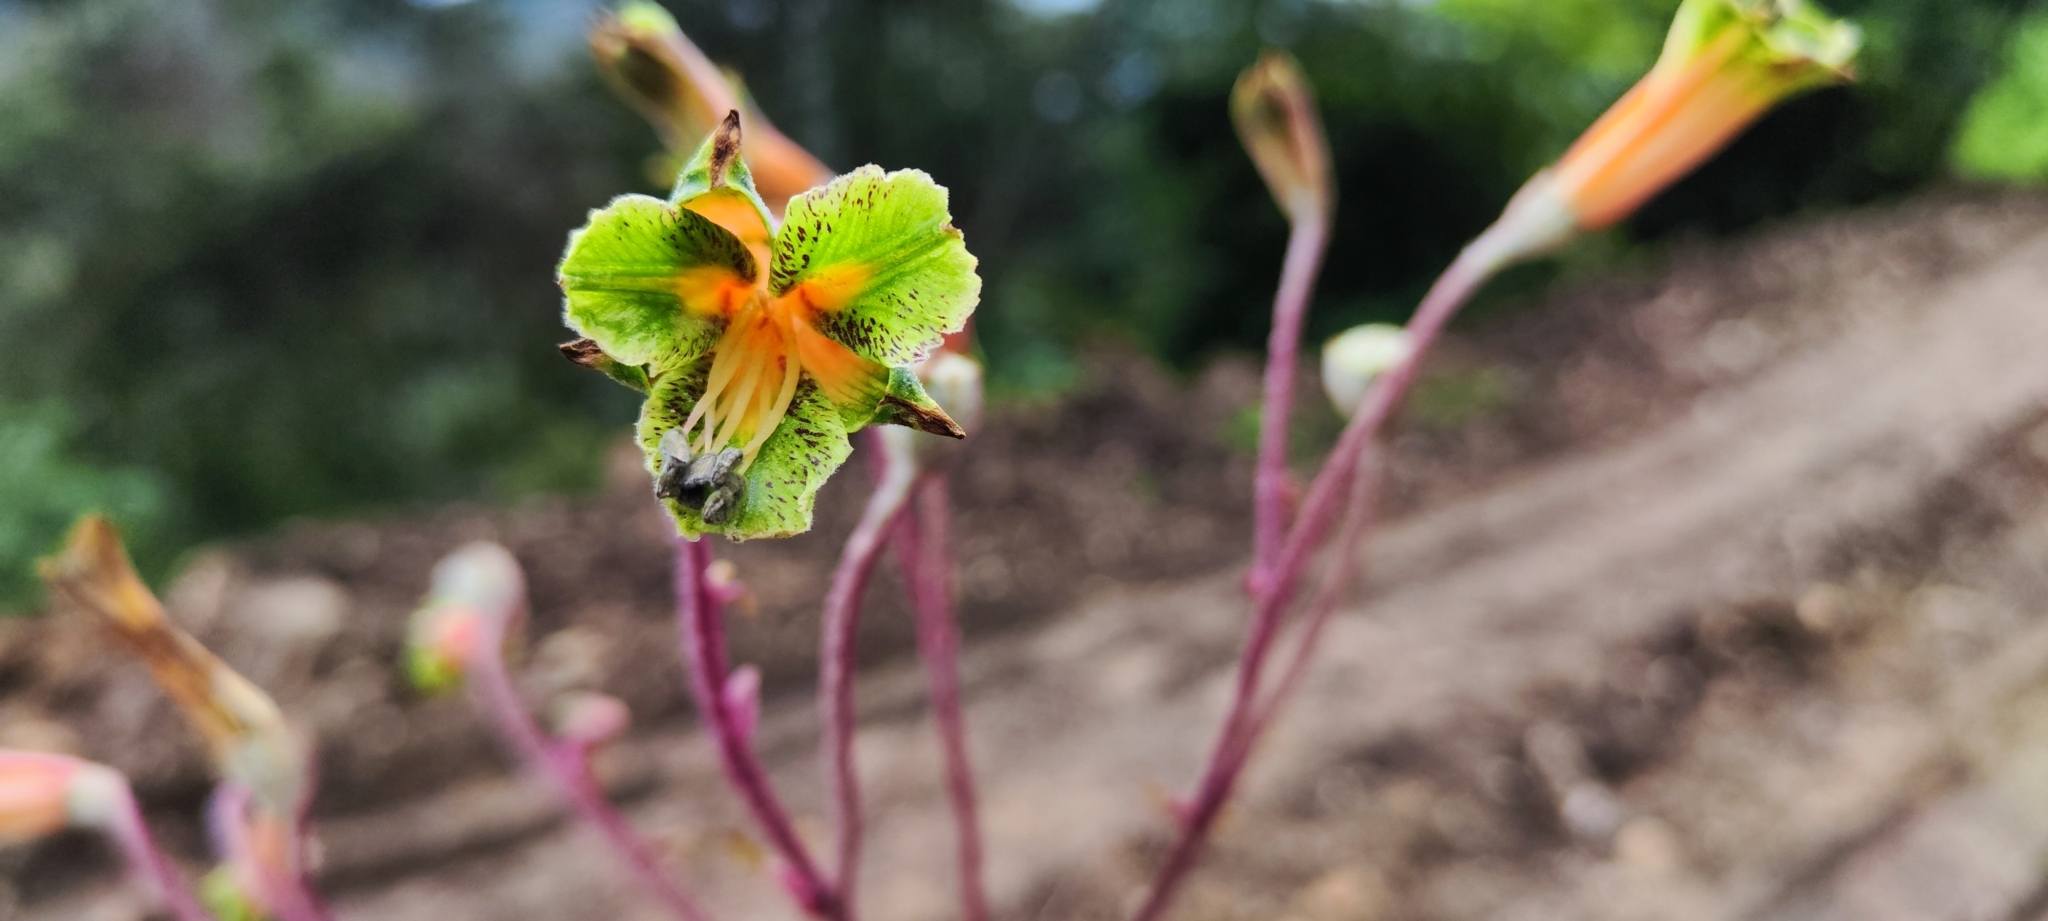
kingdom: Plantae
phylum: Tracheophyta
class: Liliopsida
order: Liliales
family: Alstroemeriaceae
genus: Bomarea
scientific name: Bomarea lopezii
